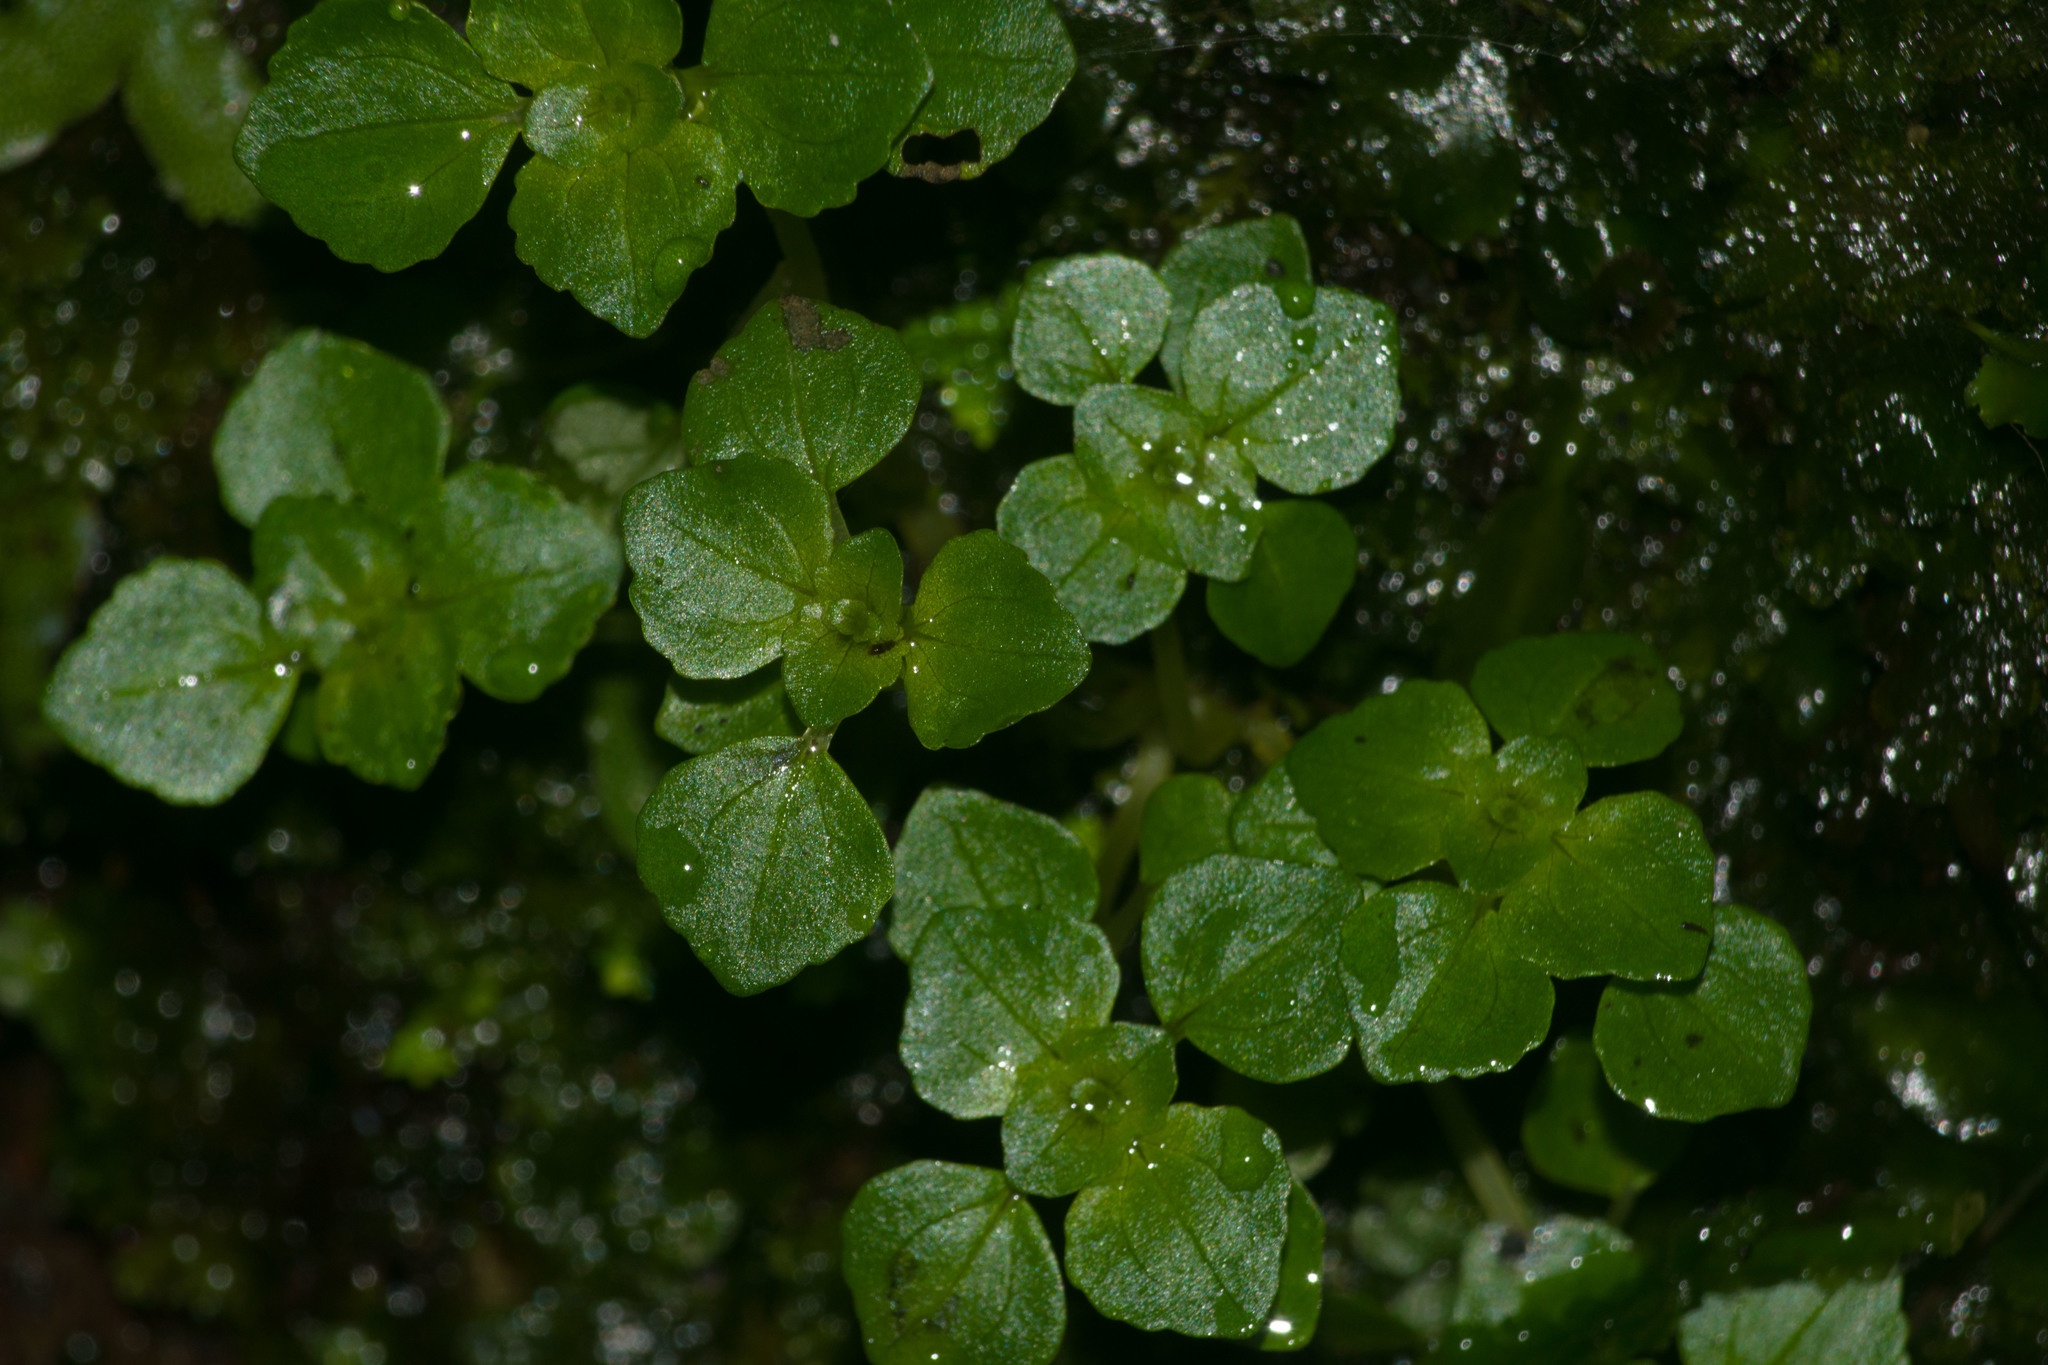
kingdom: Plantae
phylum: Tracheophyta
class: Magnoliopsida
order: Rosales
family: Urticaceae
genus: Pilea
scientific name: Pilea peploides
